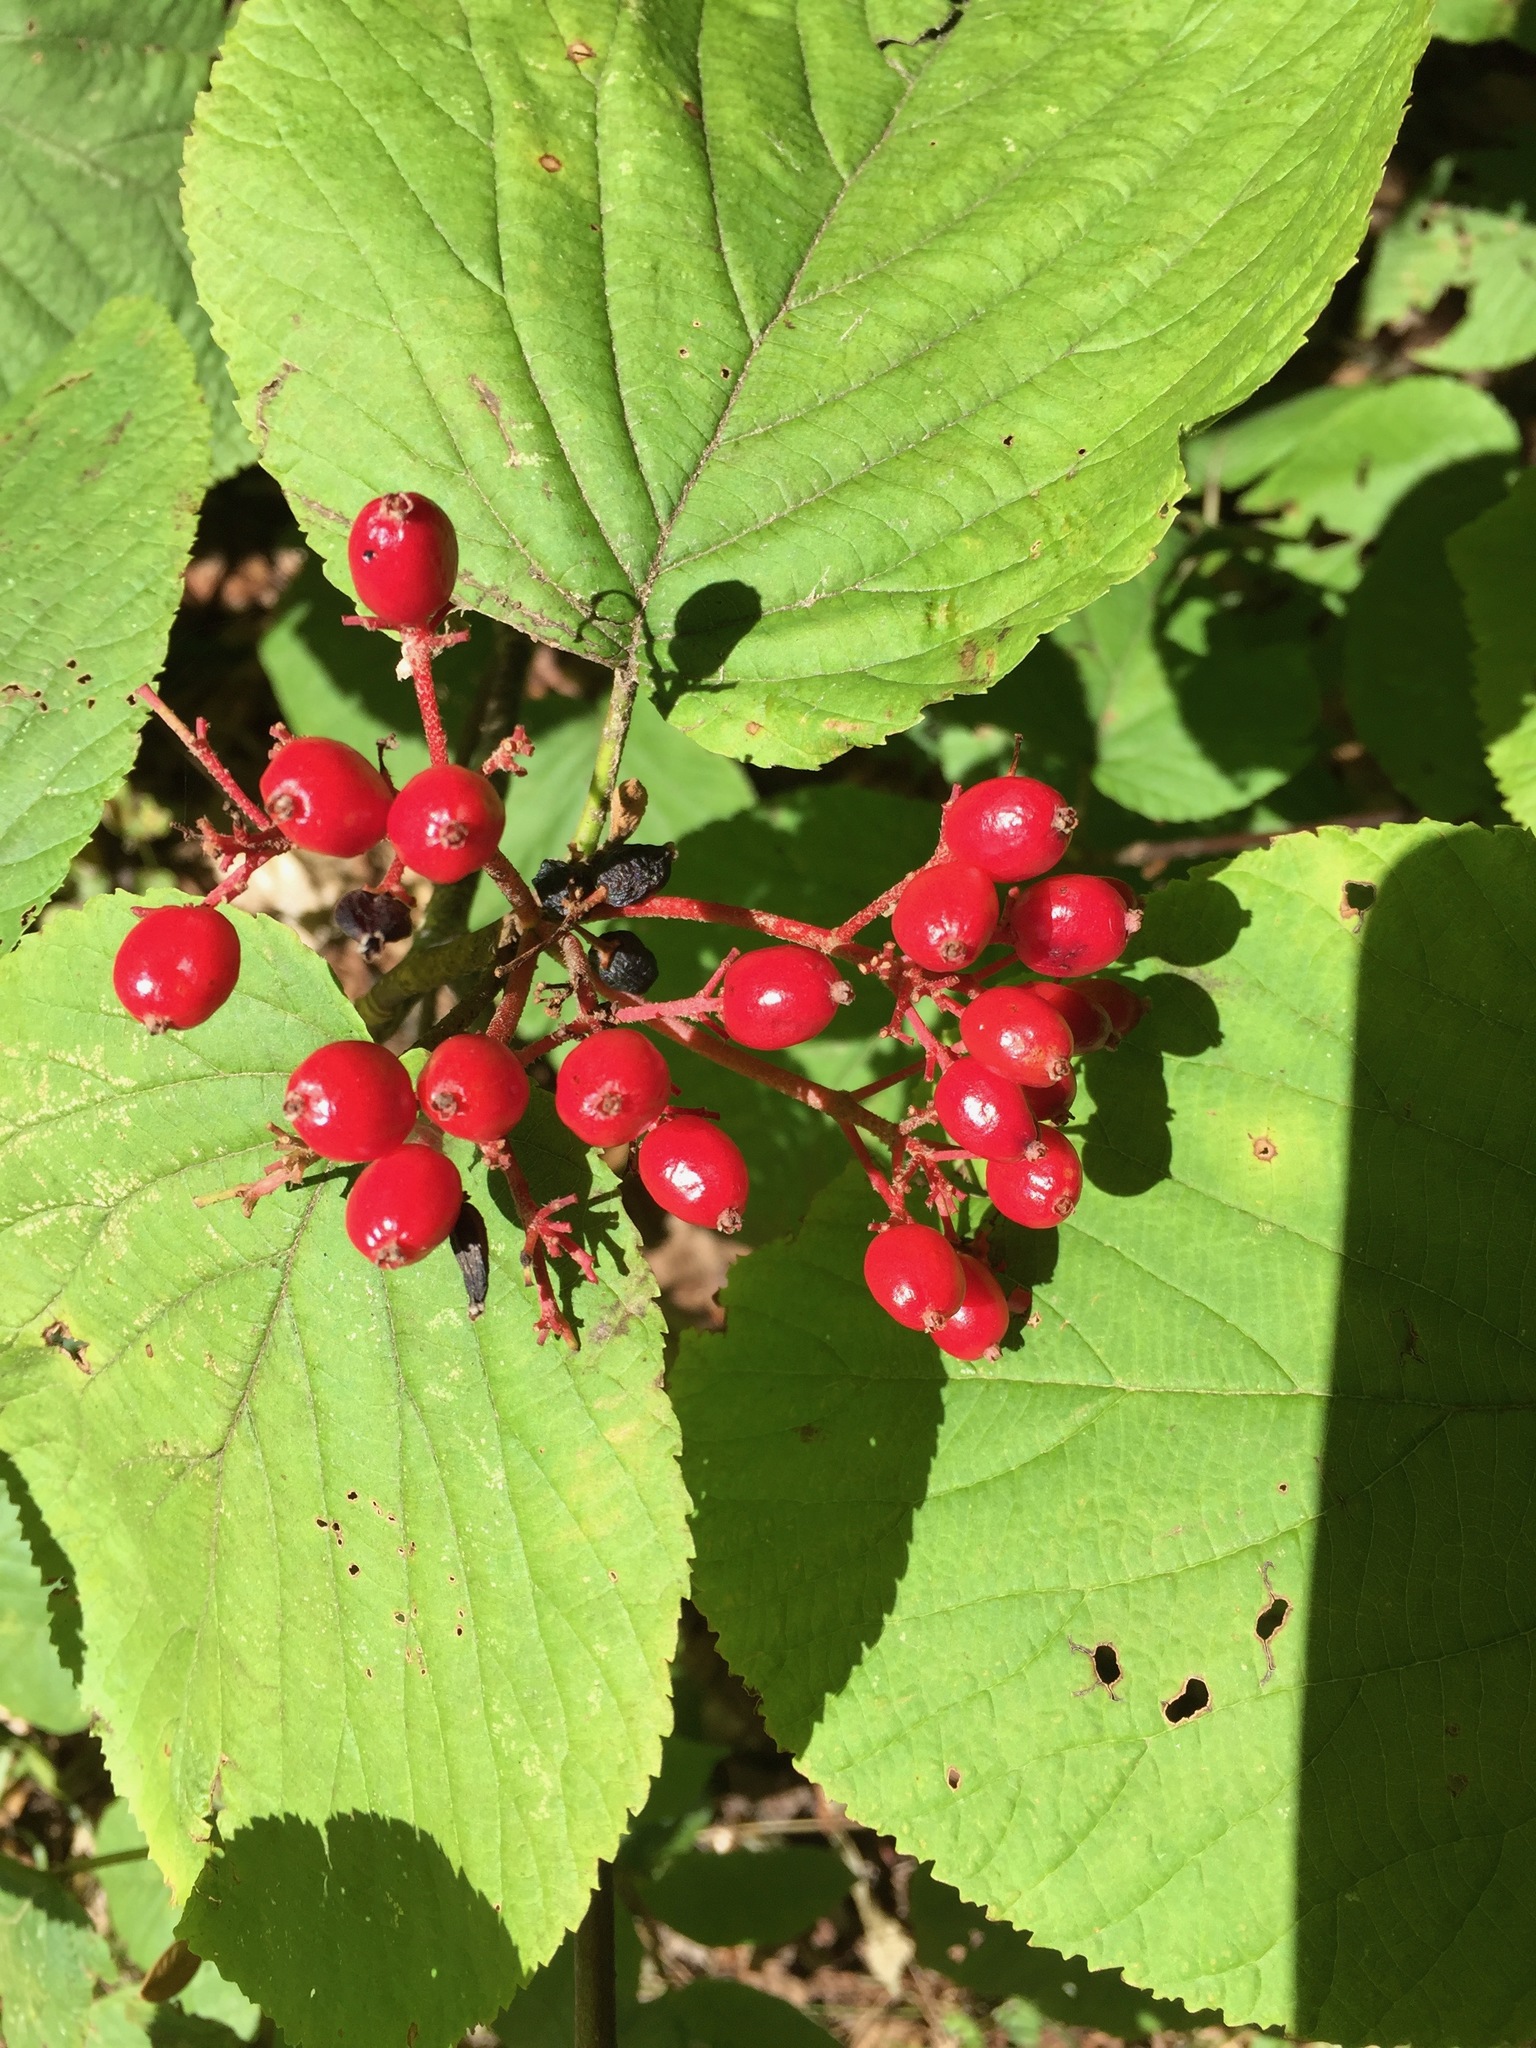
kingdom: Plantae
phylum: Tracheophyta
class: Magnoliopsida
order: Dipsacales
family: Viburnaceae
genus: Viburnum
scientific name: Viburnum lantanoides
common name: Hobblebush
